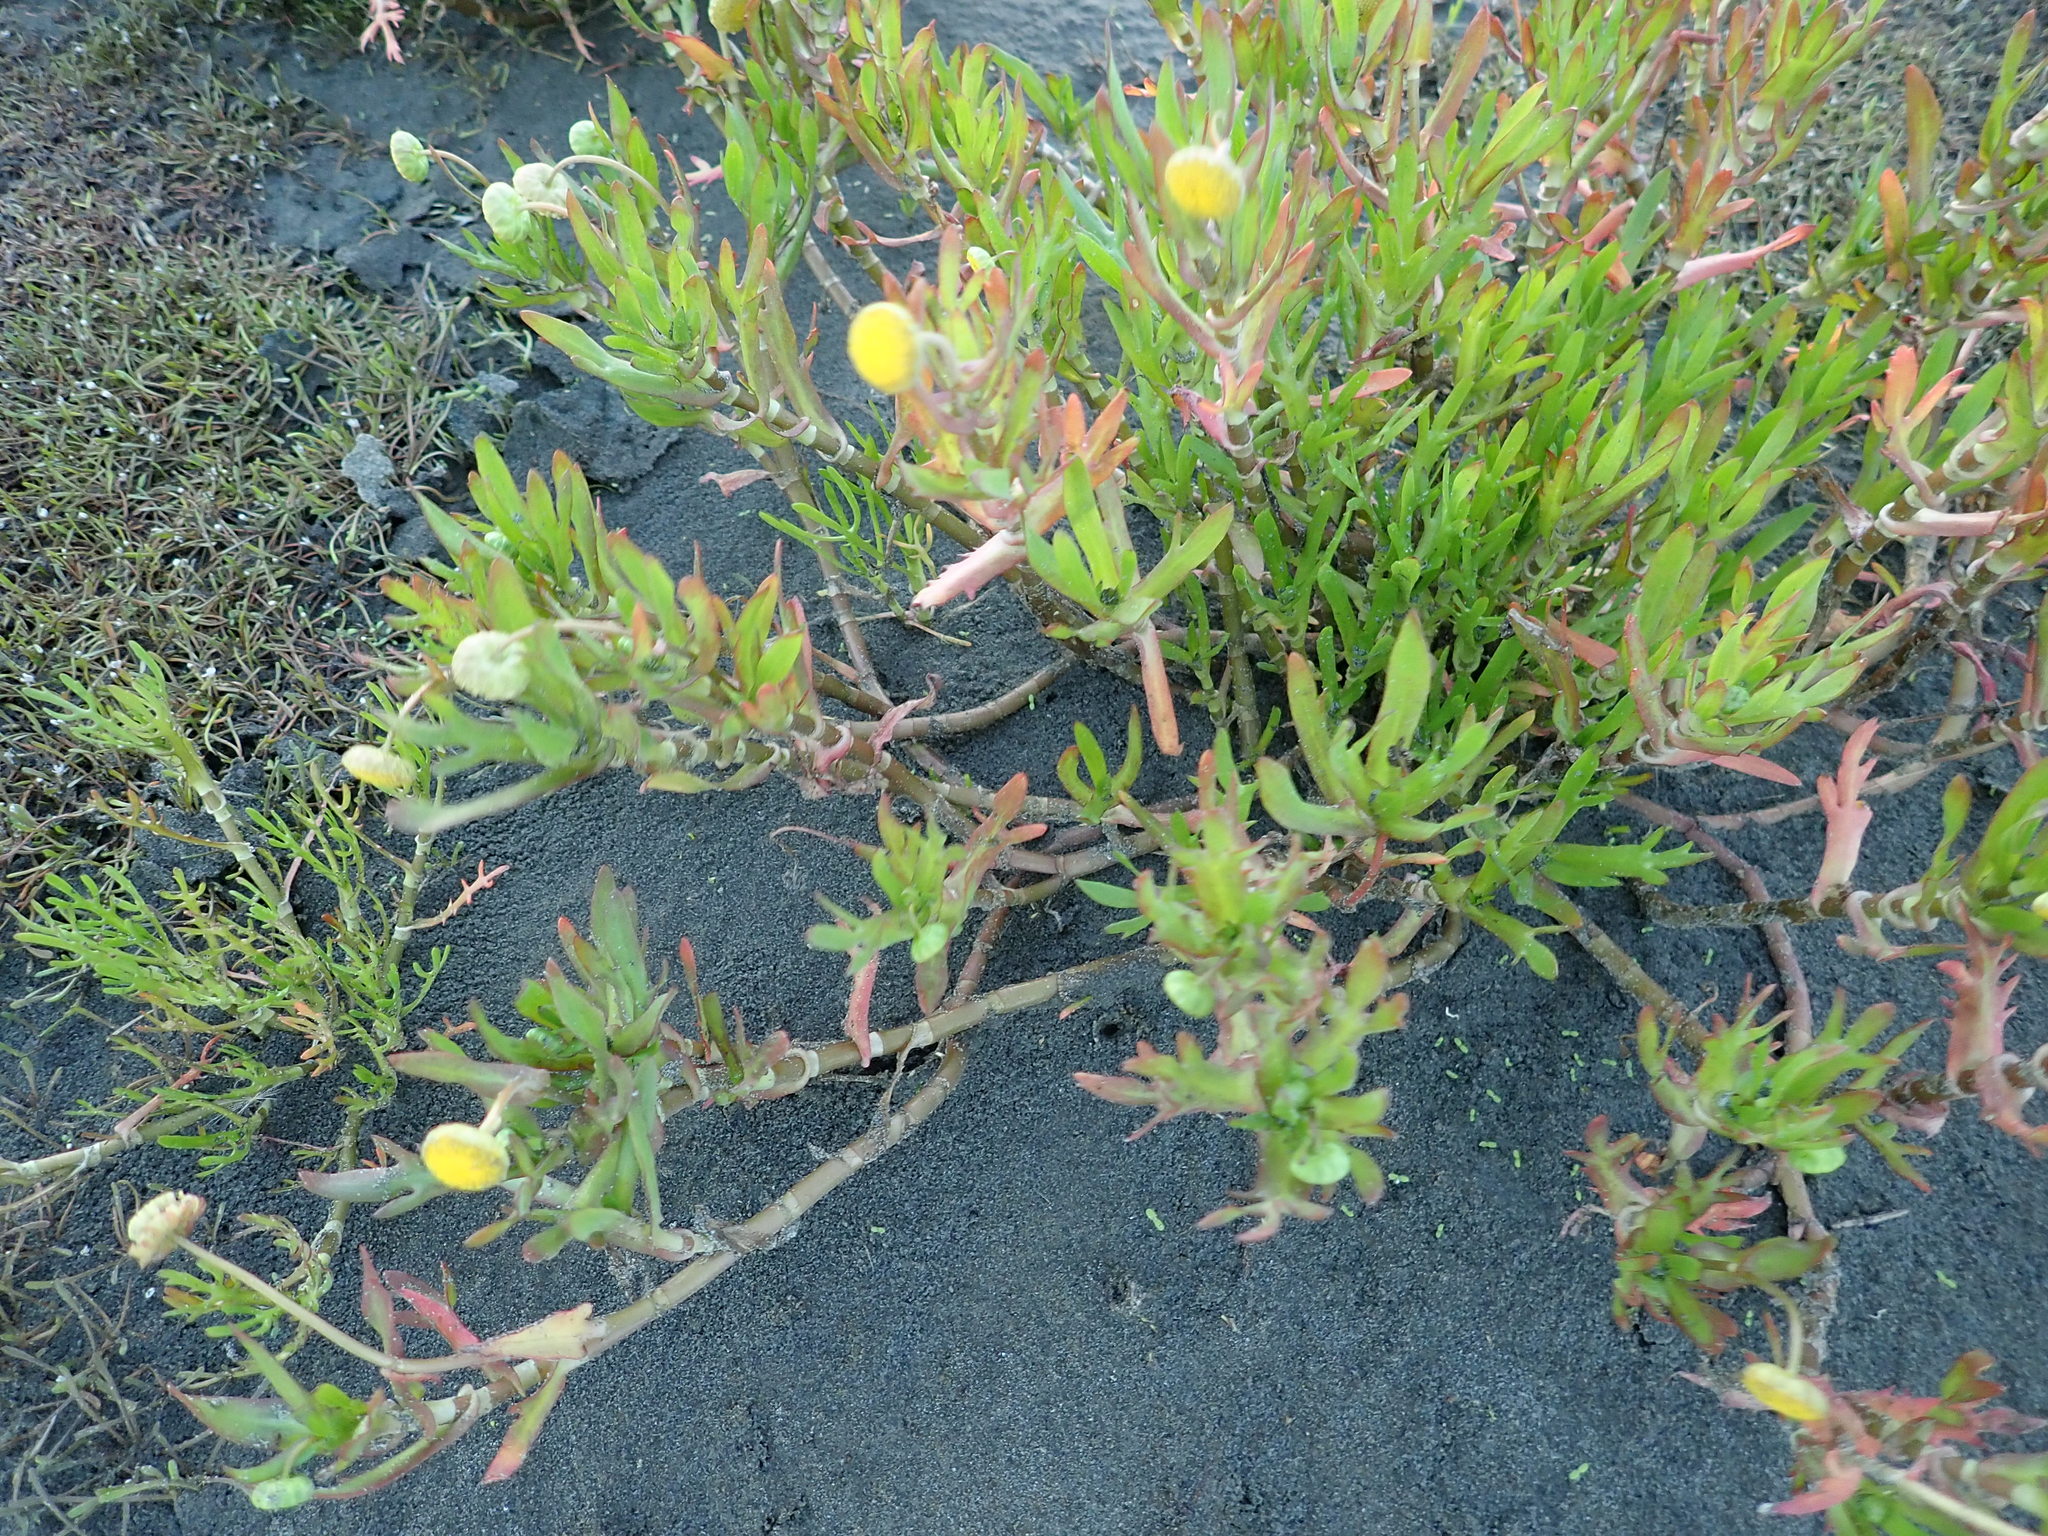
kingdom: Plantae
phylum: Tracheophyta
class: Magnoliopsida
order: Asterales
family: Asteraceae
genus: Cotula
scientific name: Cotula coronopifolia
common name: Buttonweed
